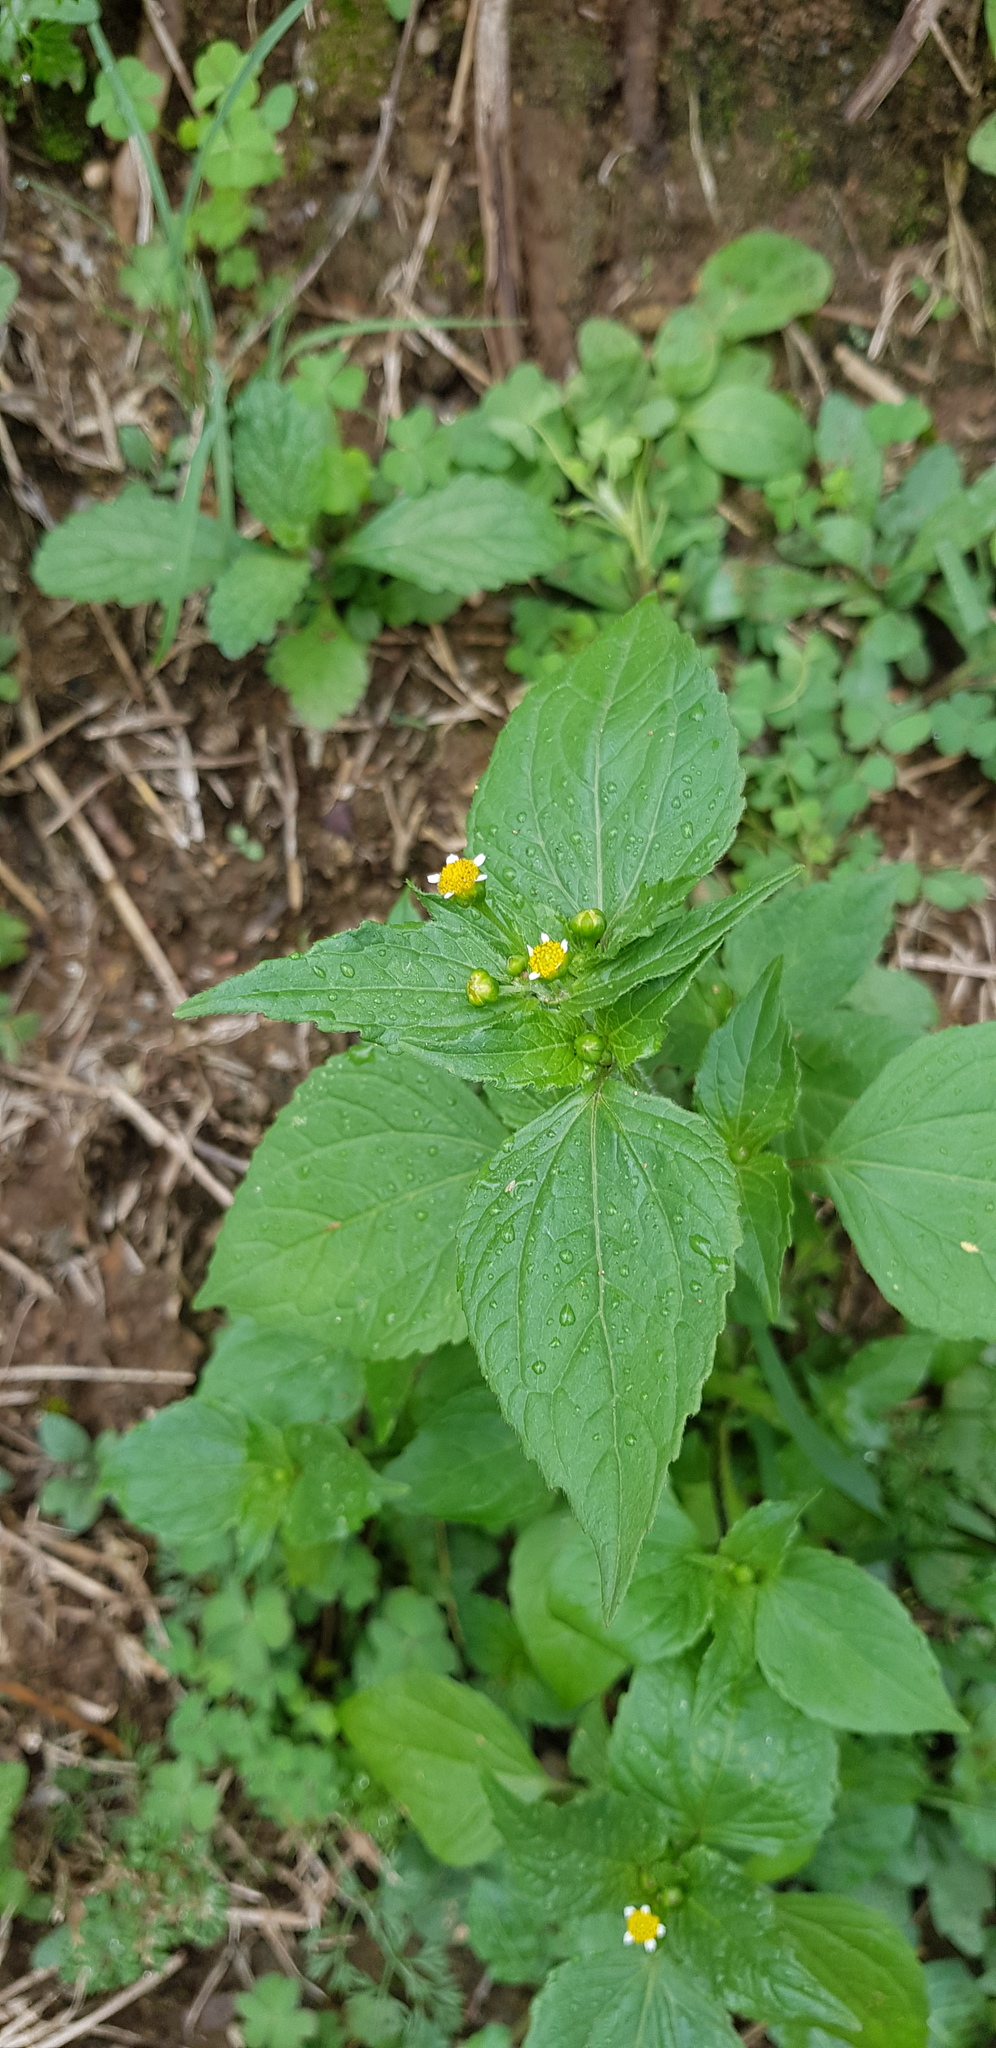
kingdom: Plantae
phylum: Tracheophyta
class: Magnoliopsida
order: Asterales
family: Asteraceae
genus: Galinsoga
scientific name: Galinsoga parviflora
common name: Gallant soldier
